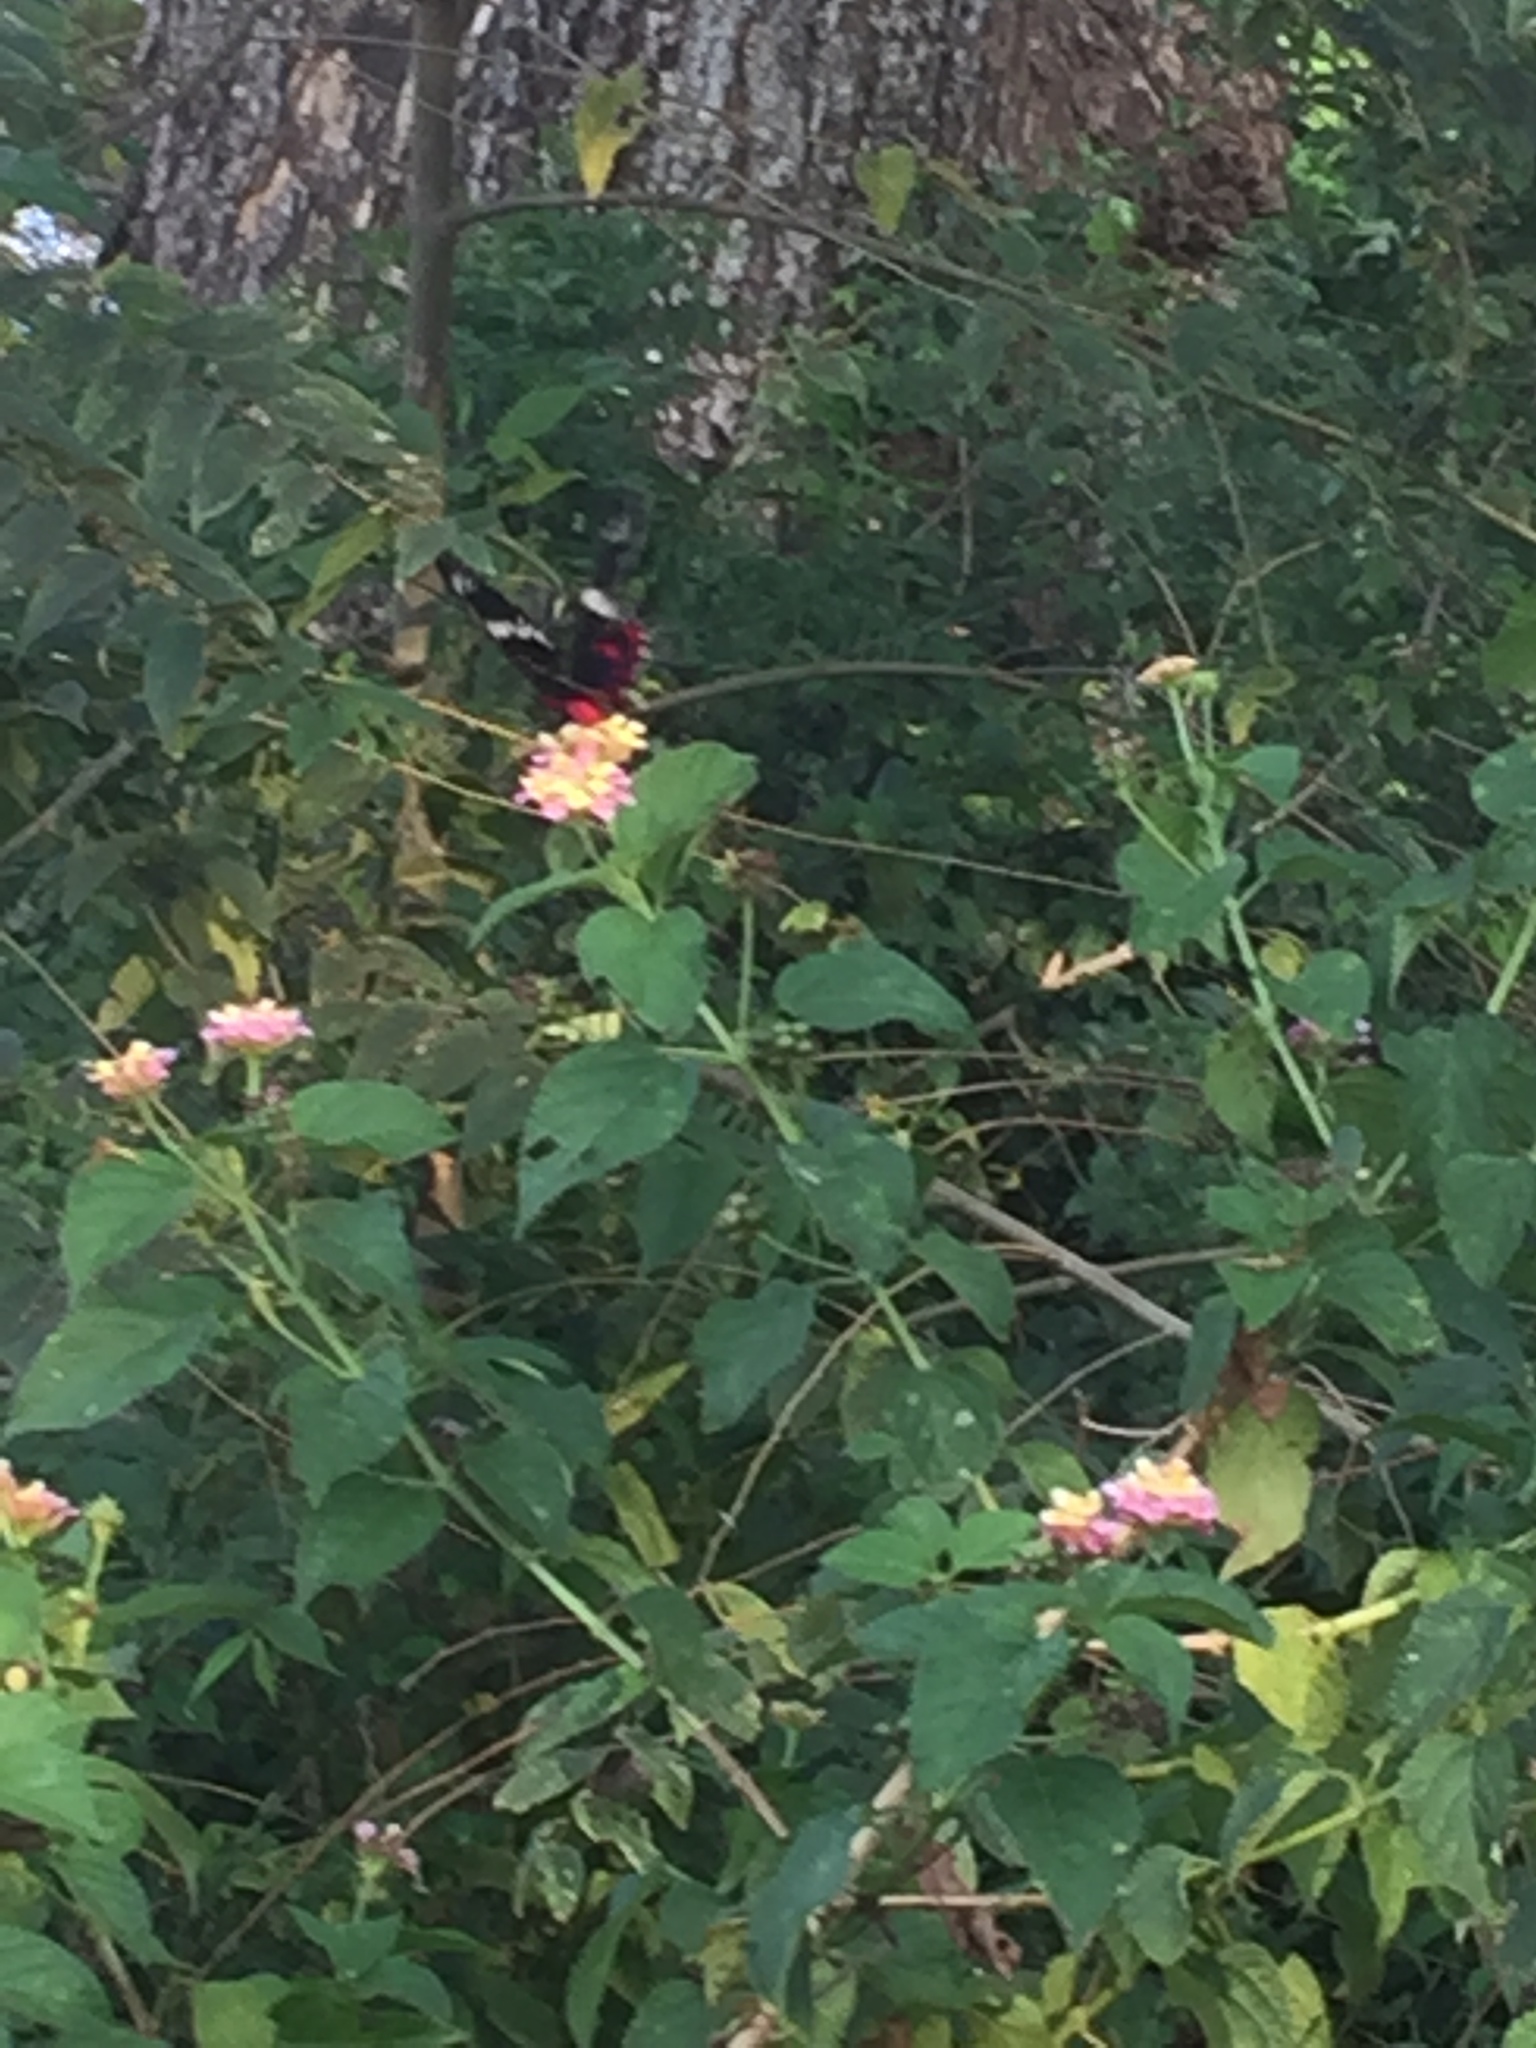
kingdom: Animalia
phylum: Arthropoda
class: Insecta
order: Lepidoptera
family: Papilionidae
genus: Pachliopta
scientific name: Pachliopta hector
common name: Crimson rose
